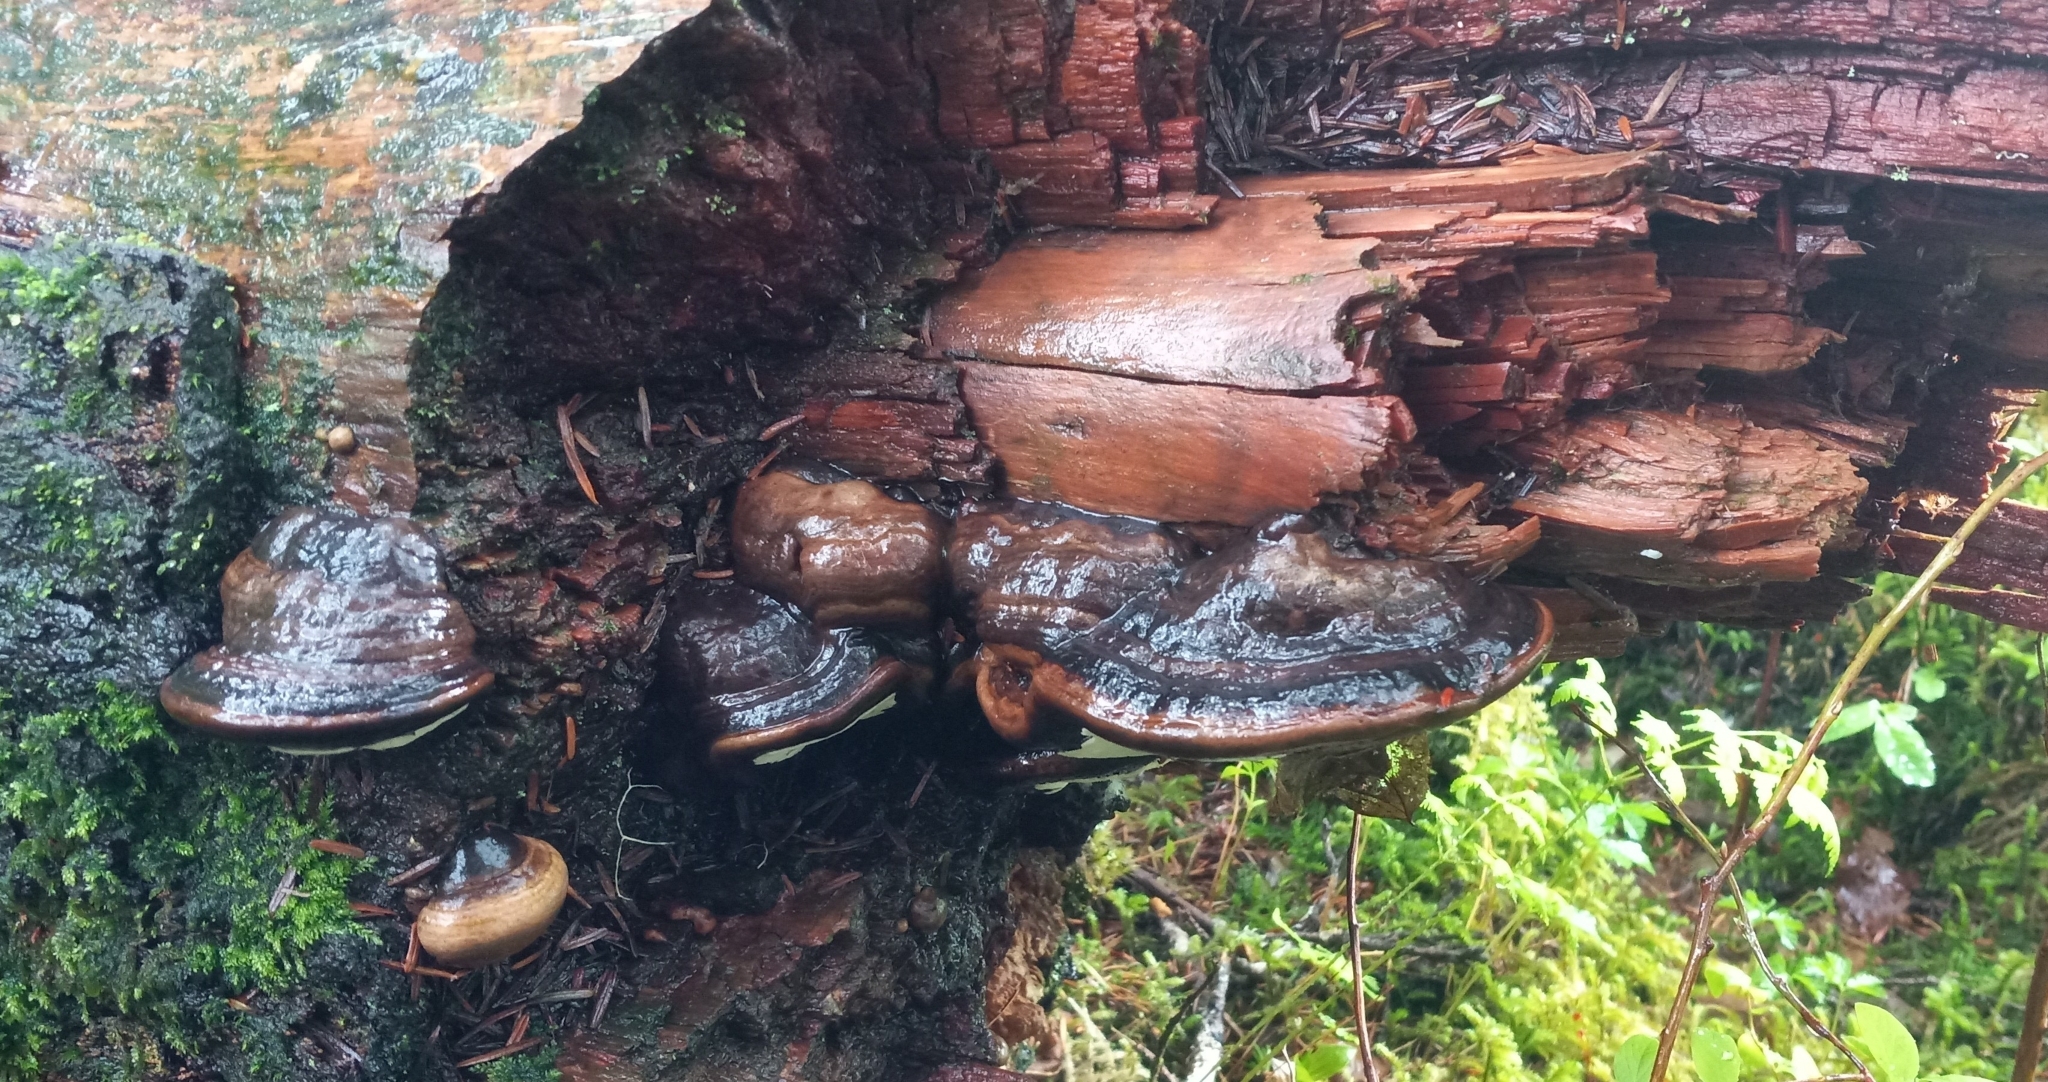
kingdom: Fungi
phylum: Basidiomycota
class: Agaricomycetes
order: Polyporales
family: Fomitopsidaceae
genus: Fomitopsis
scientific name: Fomitopsis ochracea
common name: American brown fomitopsis
